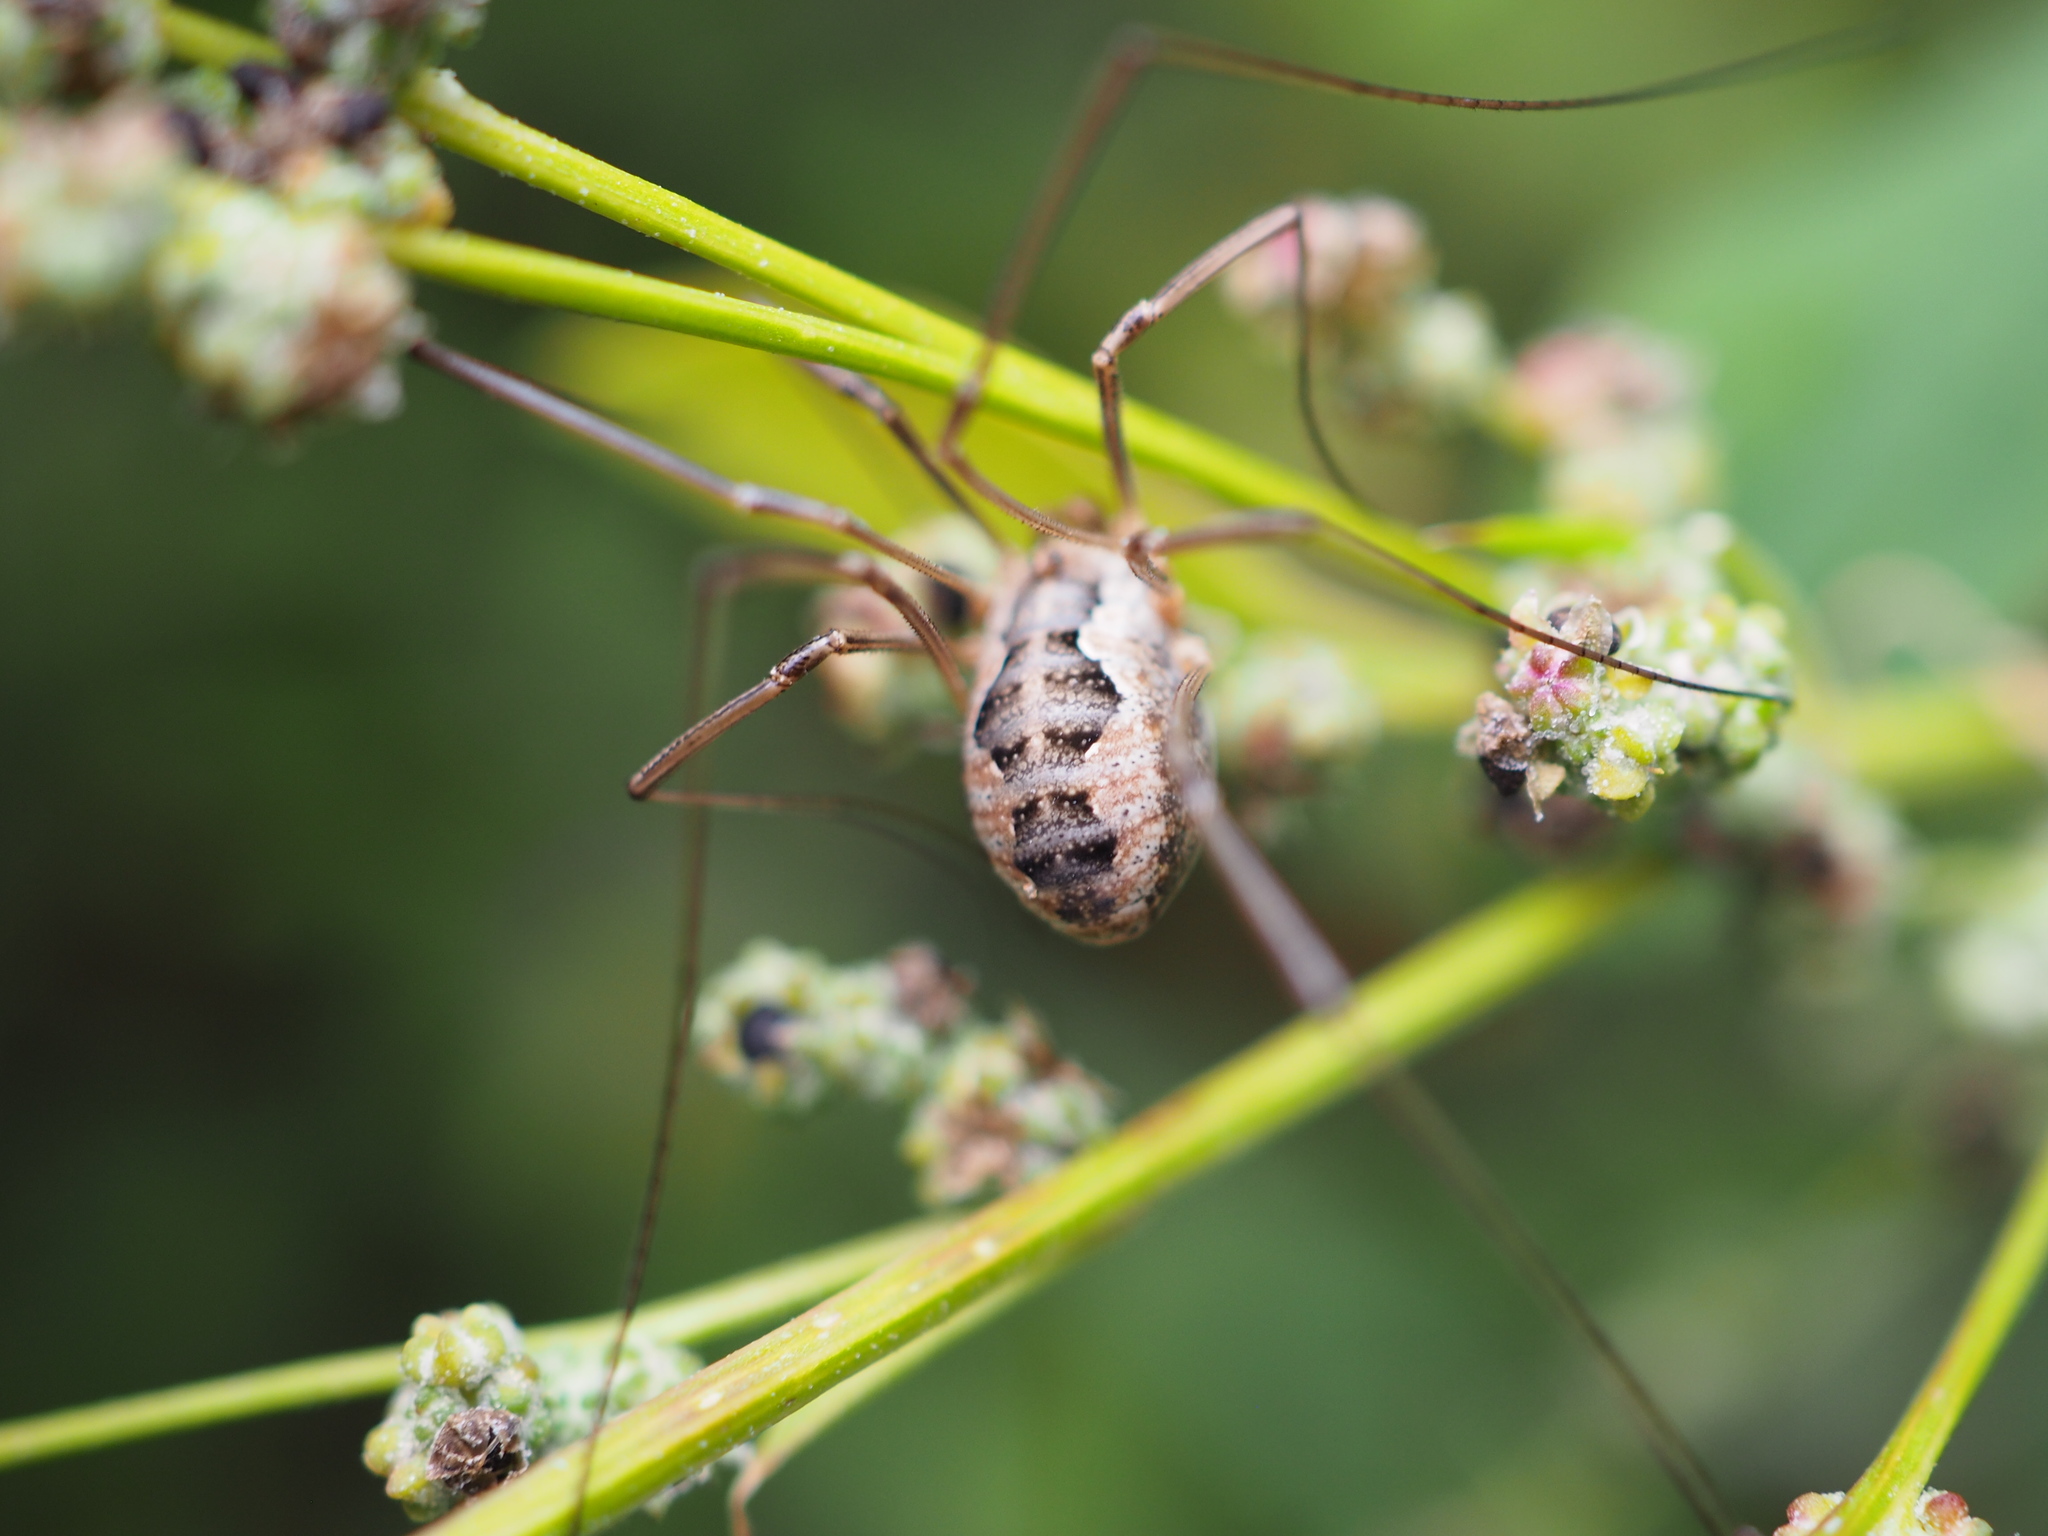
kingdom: Animalia
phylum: Arthropoda
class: Arachnida
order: Opiliones
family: Phalangiidae
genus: Phalangium
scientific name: Phalangium opilio
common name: Daddy longleg
